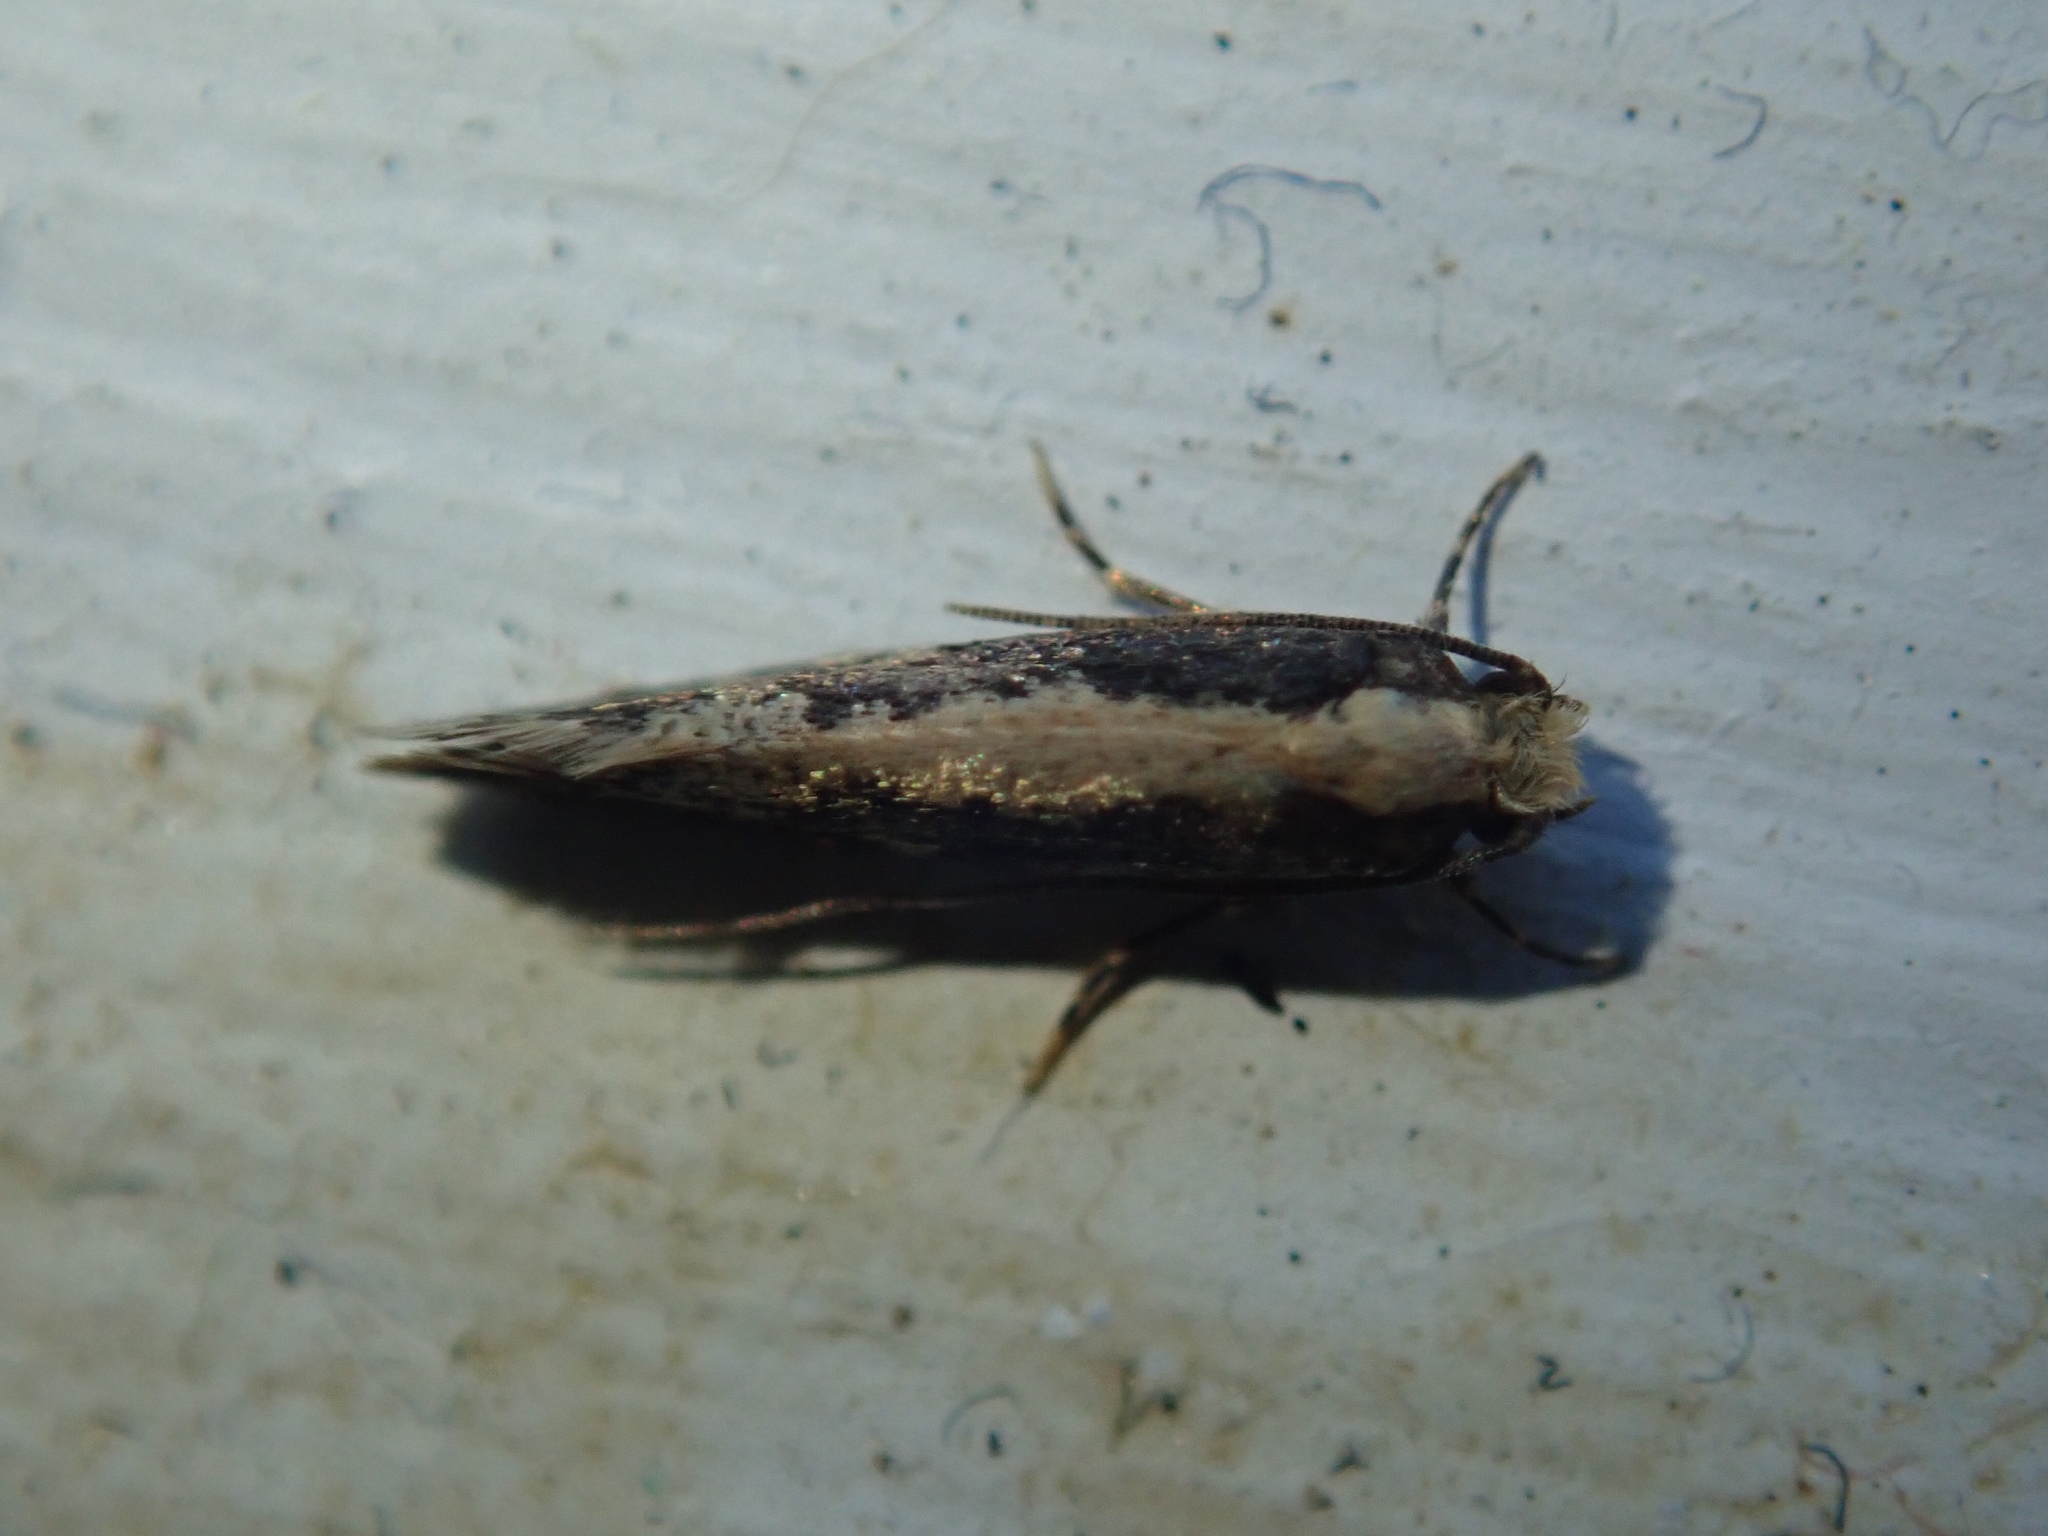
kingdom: Animalia
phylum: Arthropoda
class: Insecta
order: Lepidoptera
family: Tineidae
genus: Monopis
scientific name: Monopis crocicapitella
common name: Moth
